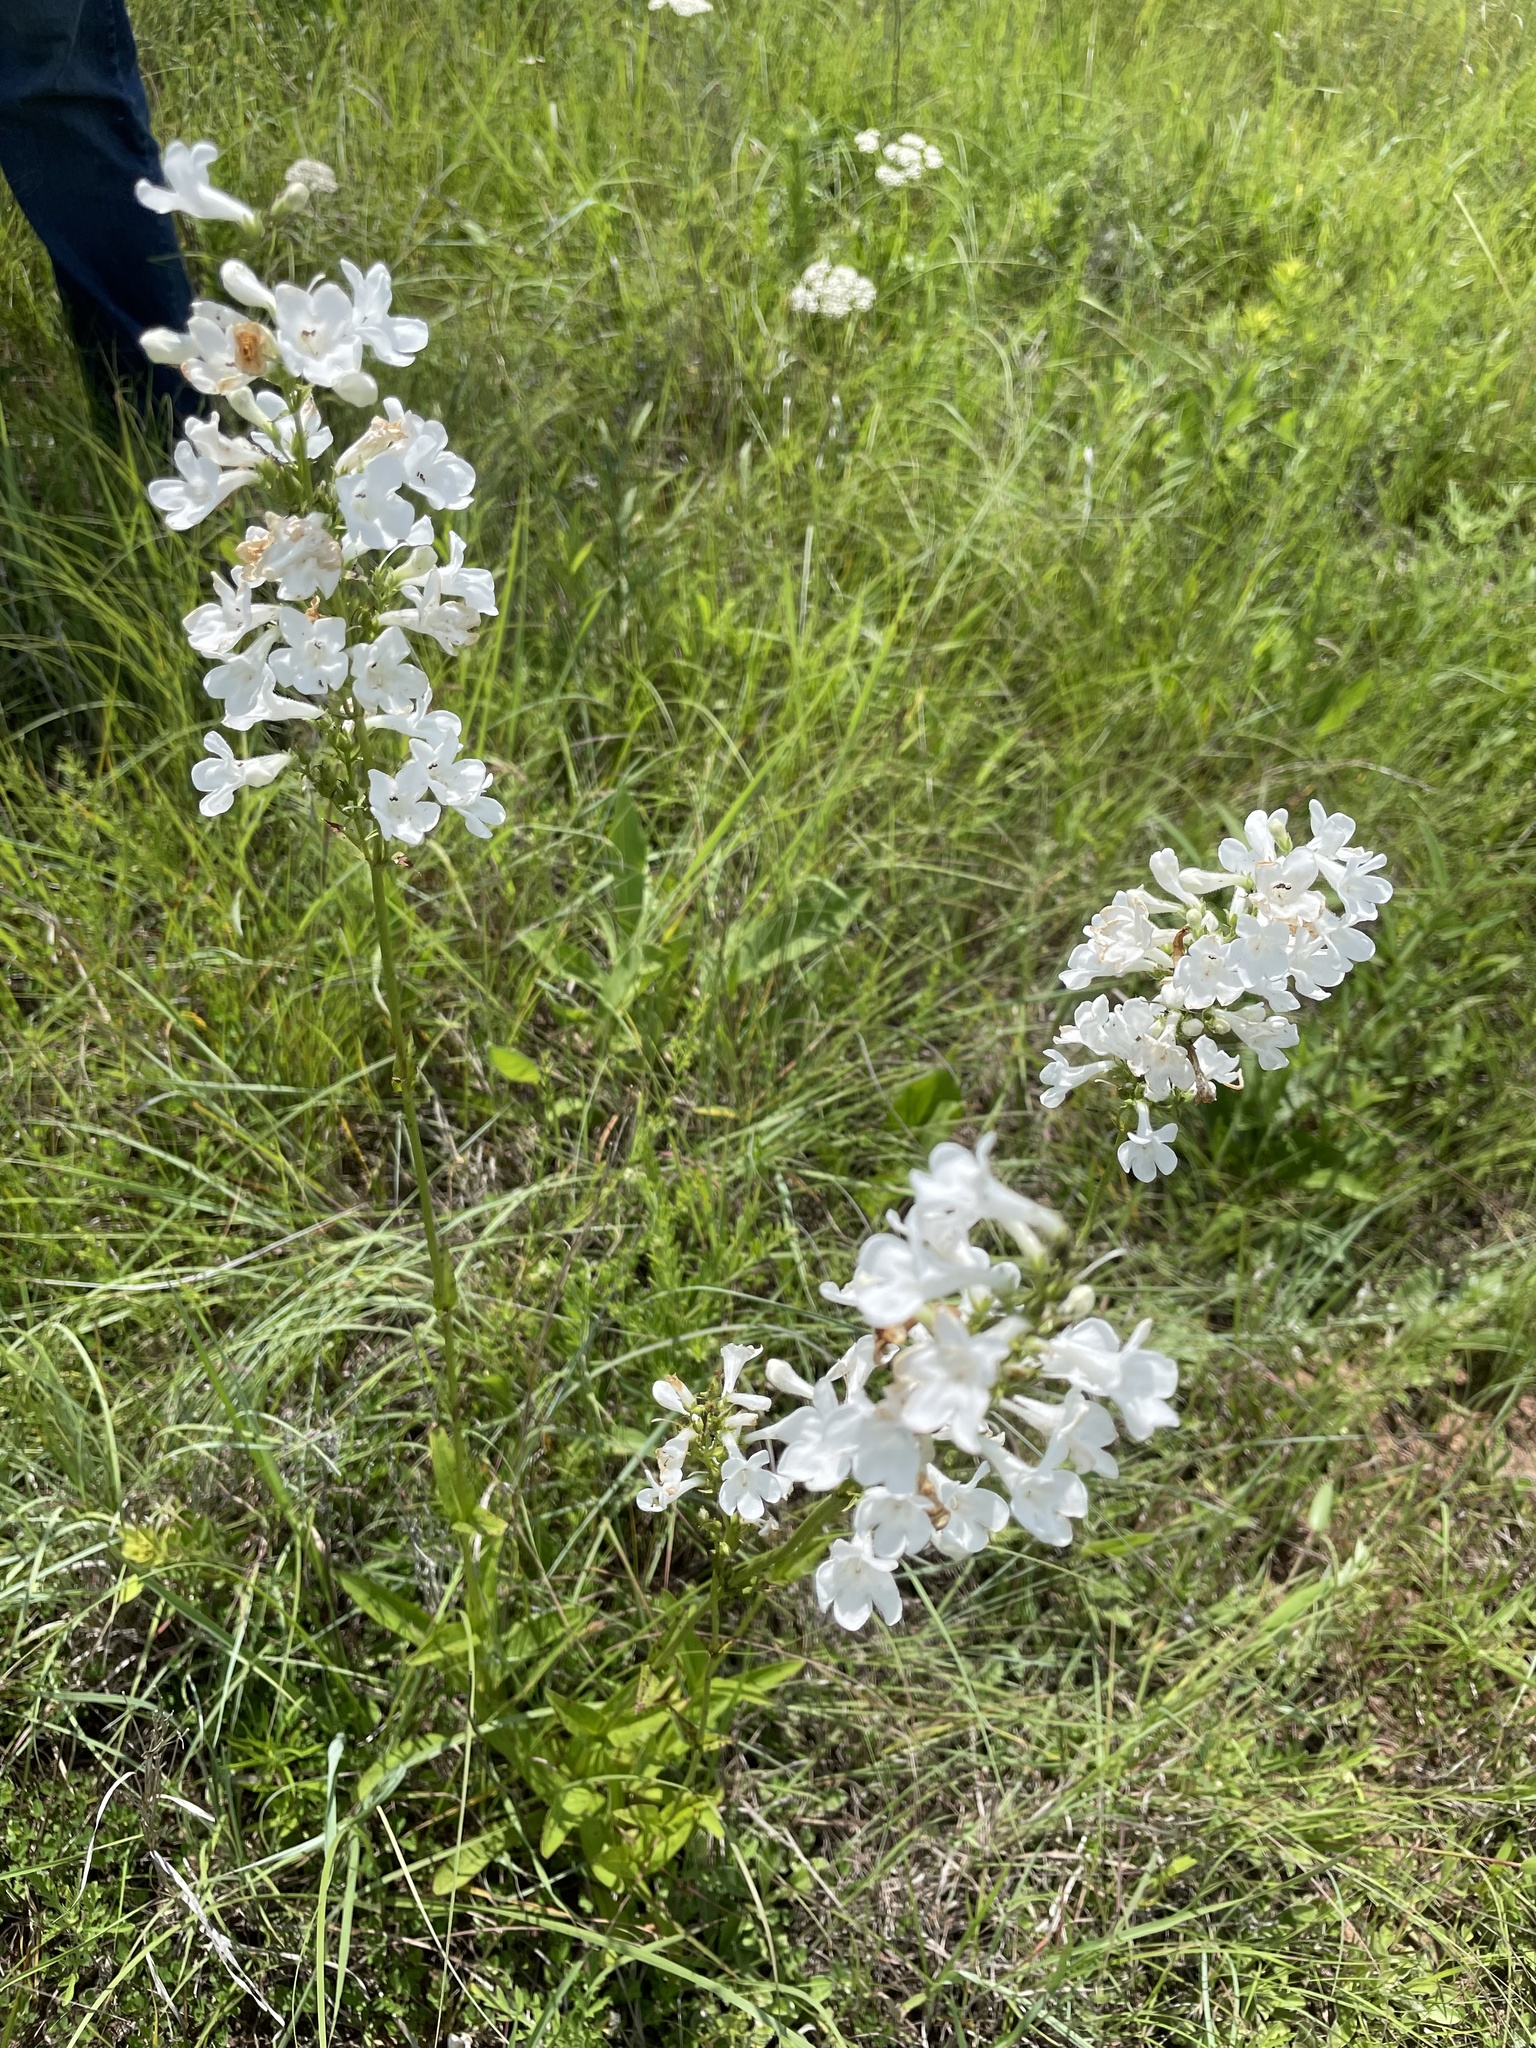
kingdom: Plantae
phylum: Tracheophyta
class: Magnoliopsida
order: Lamiales
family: Plantaginaceae
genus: Penstemon
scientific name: Penstemon tubaeflorus
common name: White wand beardtongue
